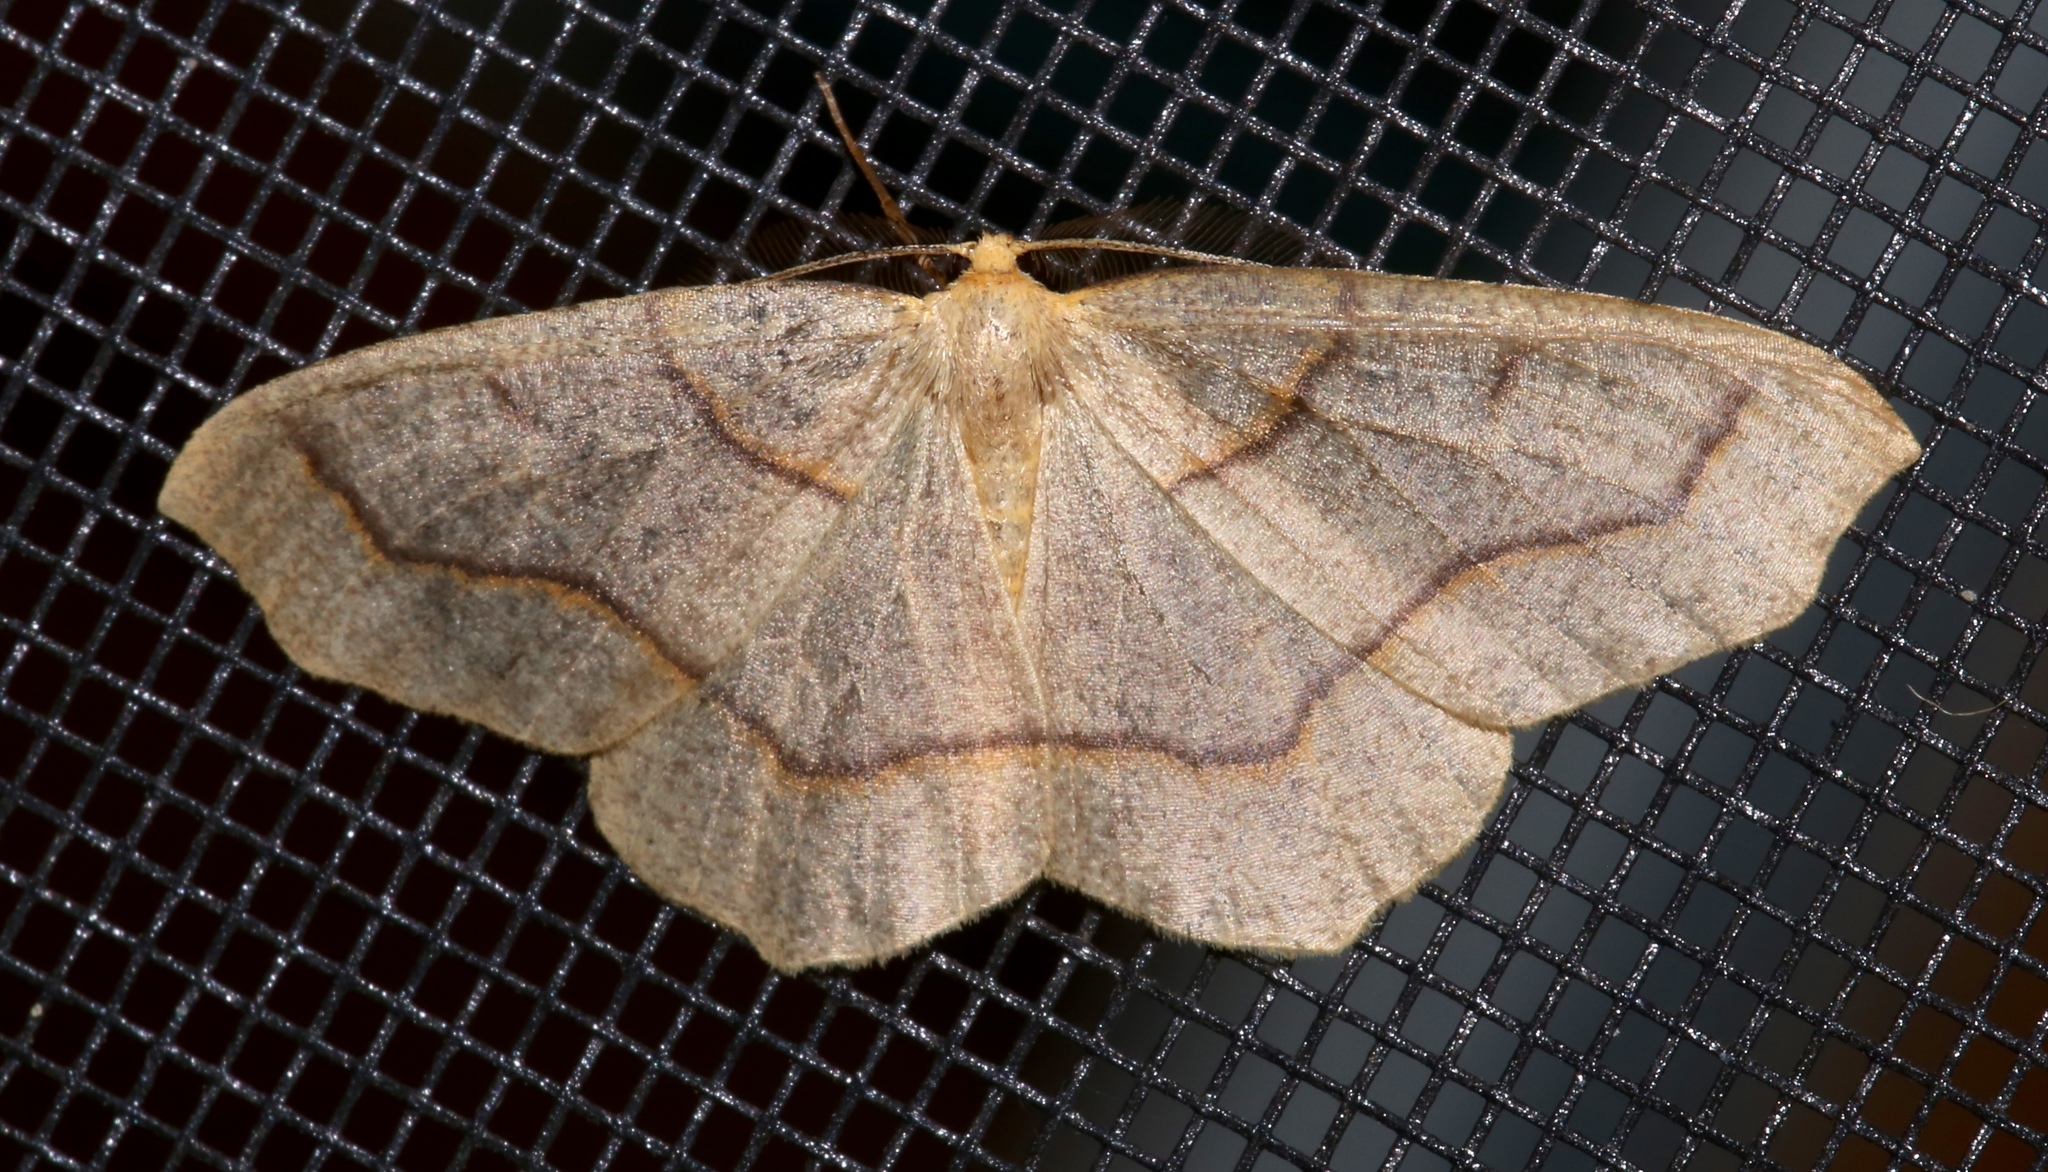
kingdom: Animalia
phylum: Arthropoda
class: Insecta
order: Lepidoptera
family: Geometridae
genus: Lambdina
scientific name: Lambdina fiscellaria
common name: Hemlock looper
